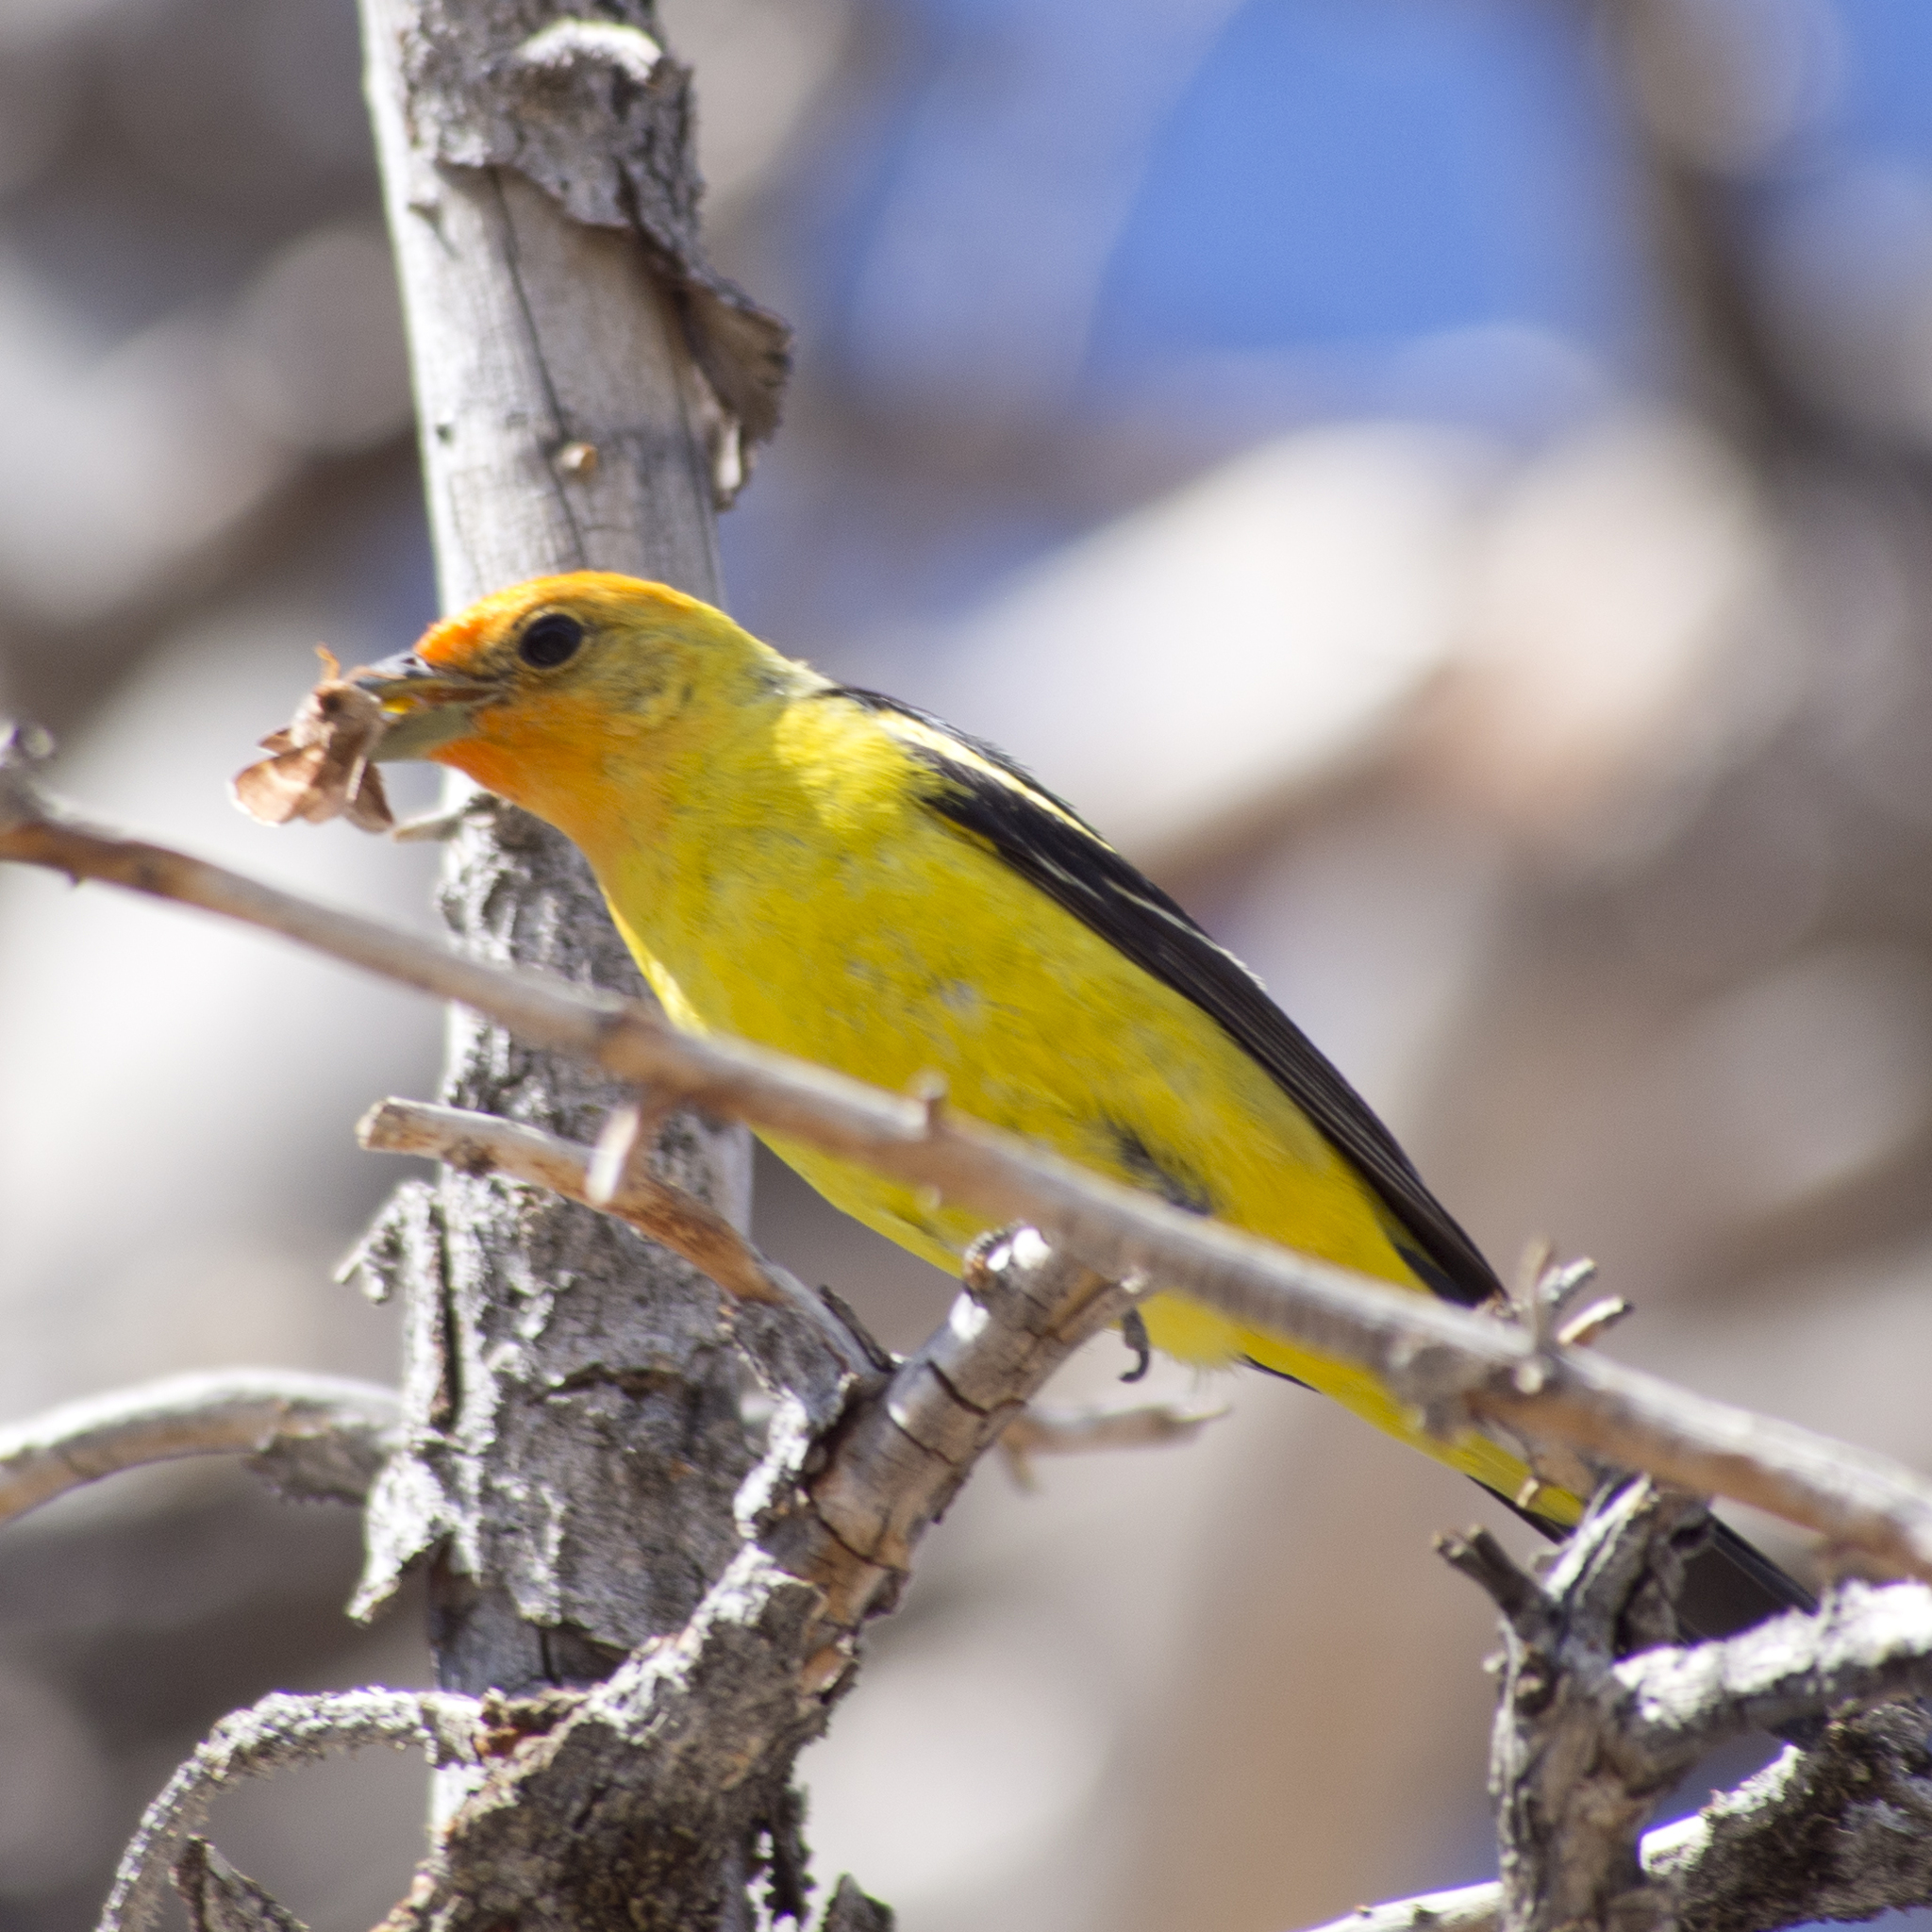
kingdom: Animalia
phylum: Chordata
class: Aves
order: Passeriformes
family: Cardinalidae
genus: Piranga
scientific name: Piranga ludoviciana
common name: Western tanager
